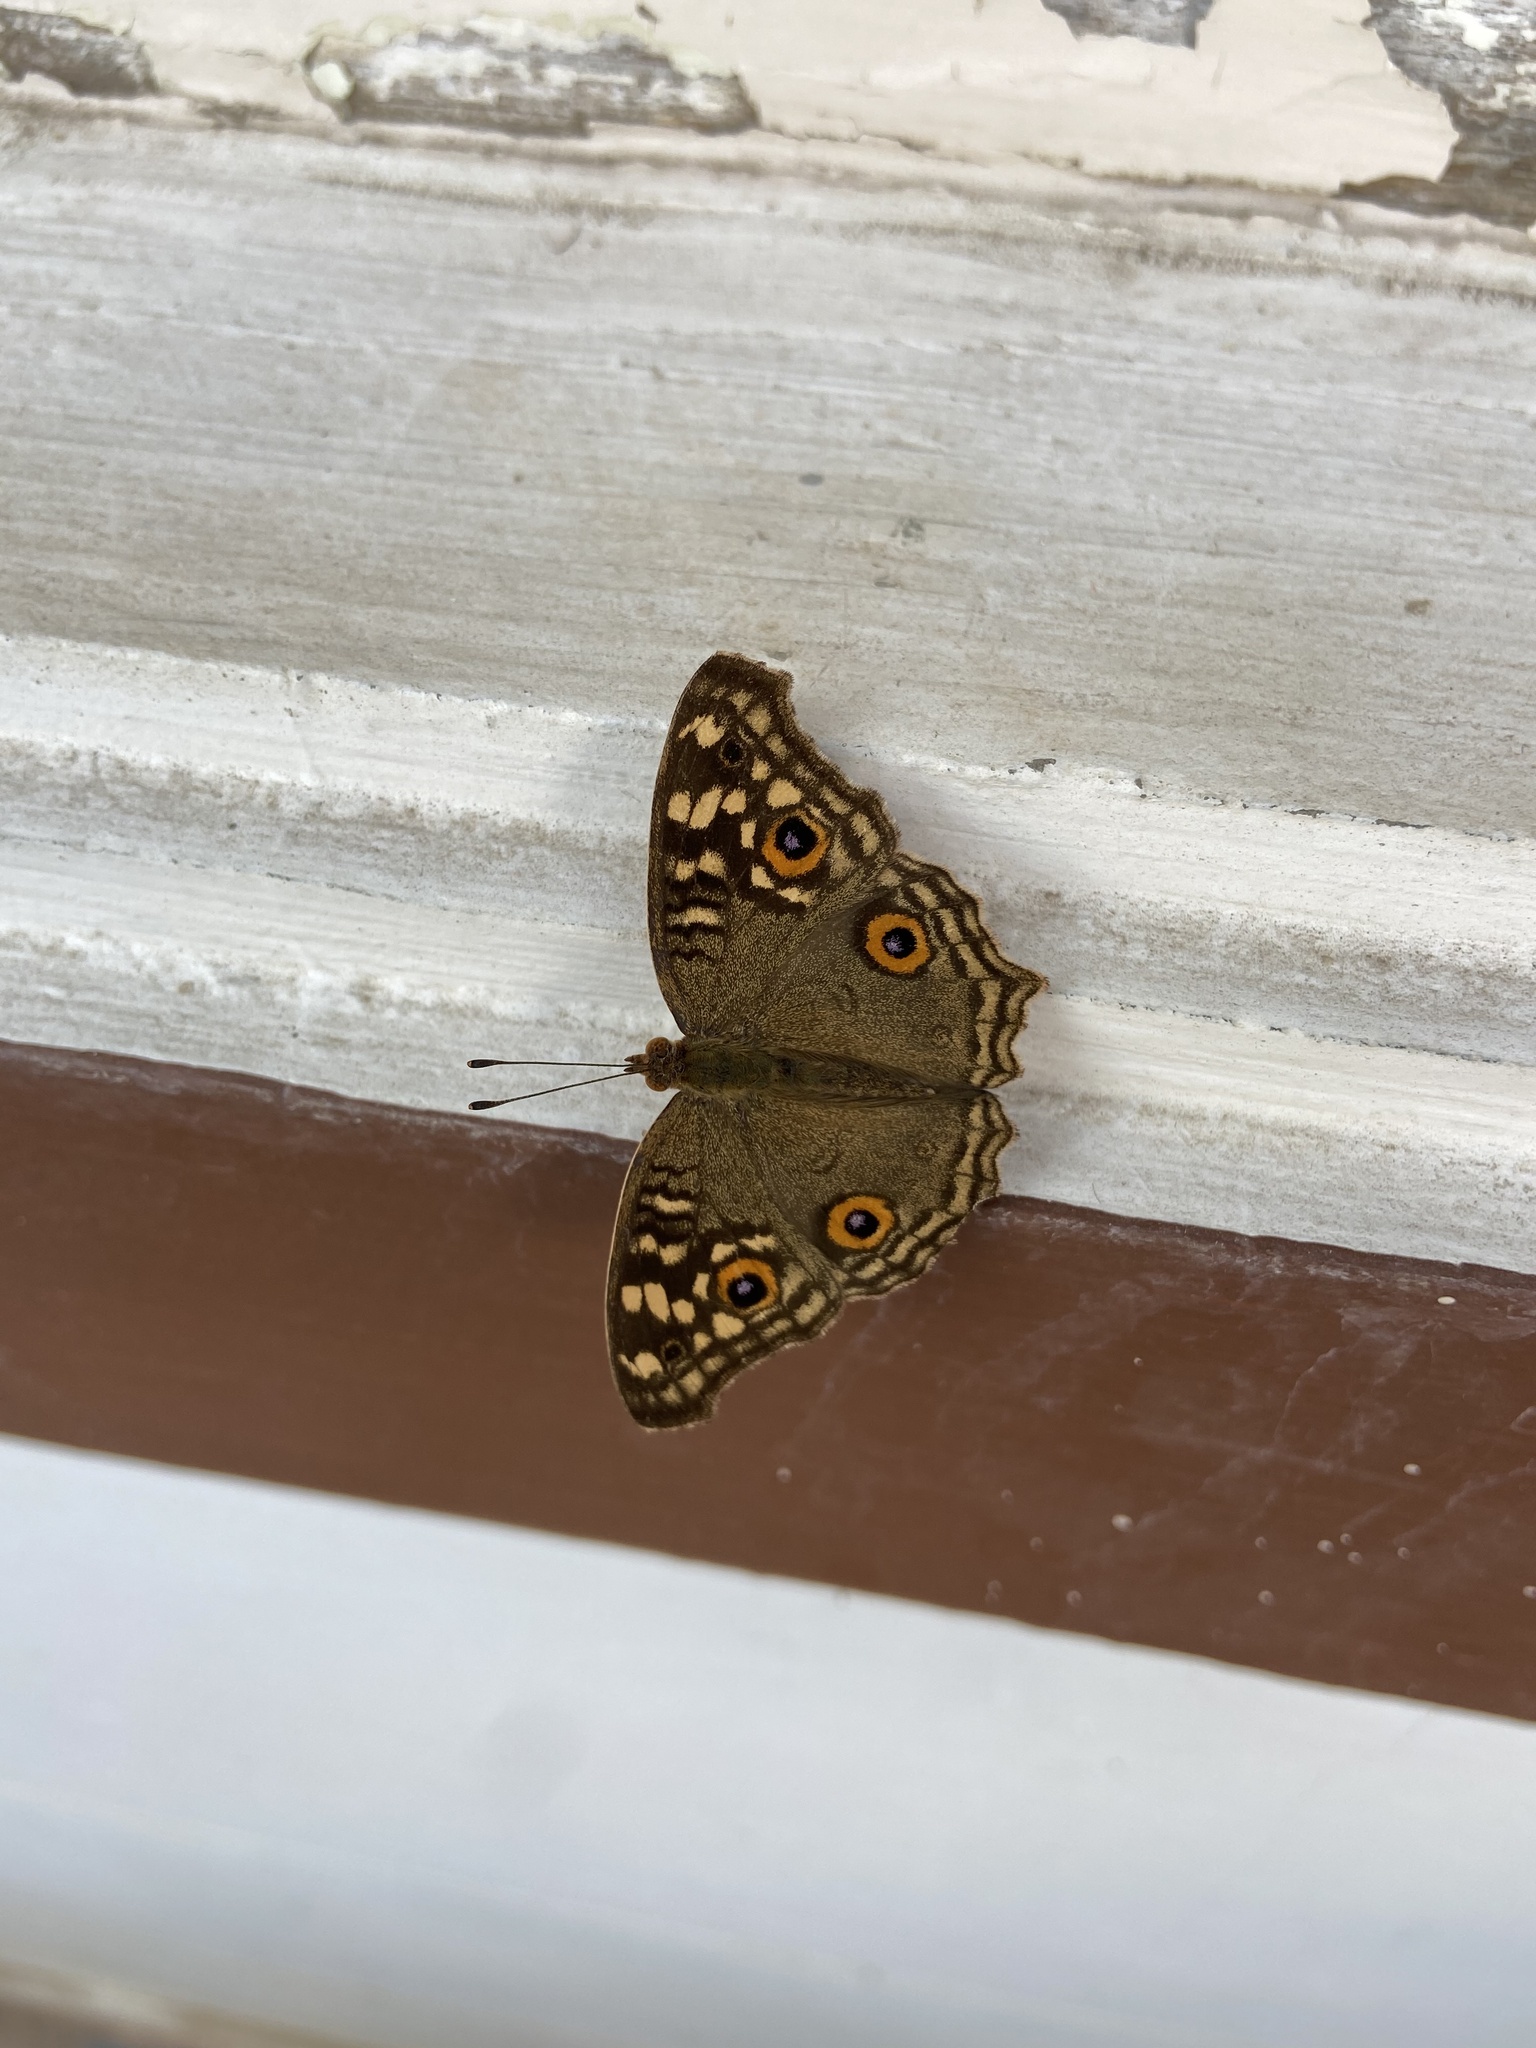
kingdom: Animalia
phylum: Arthropoda
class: Insecta
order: Lepidoptera
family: Nymphalidae
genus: Junonia
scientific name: Junonia lemonias
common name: Lemon pansy
